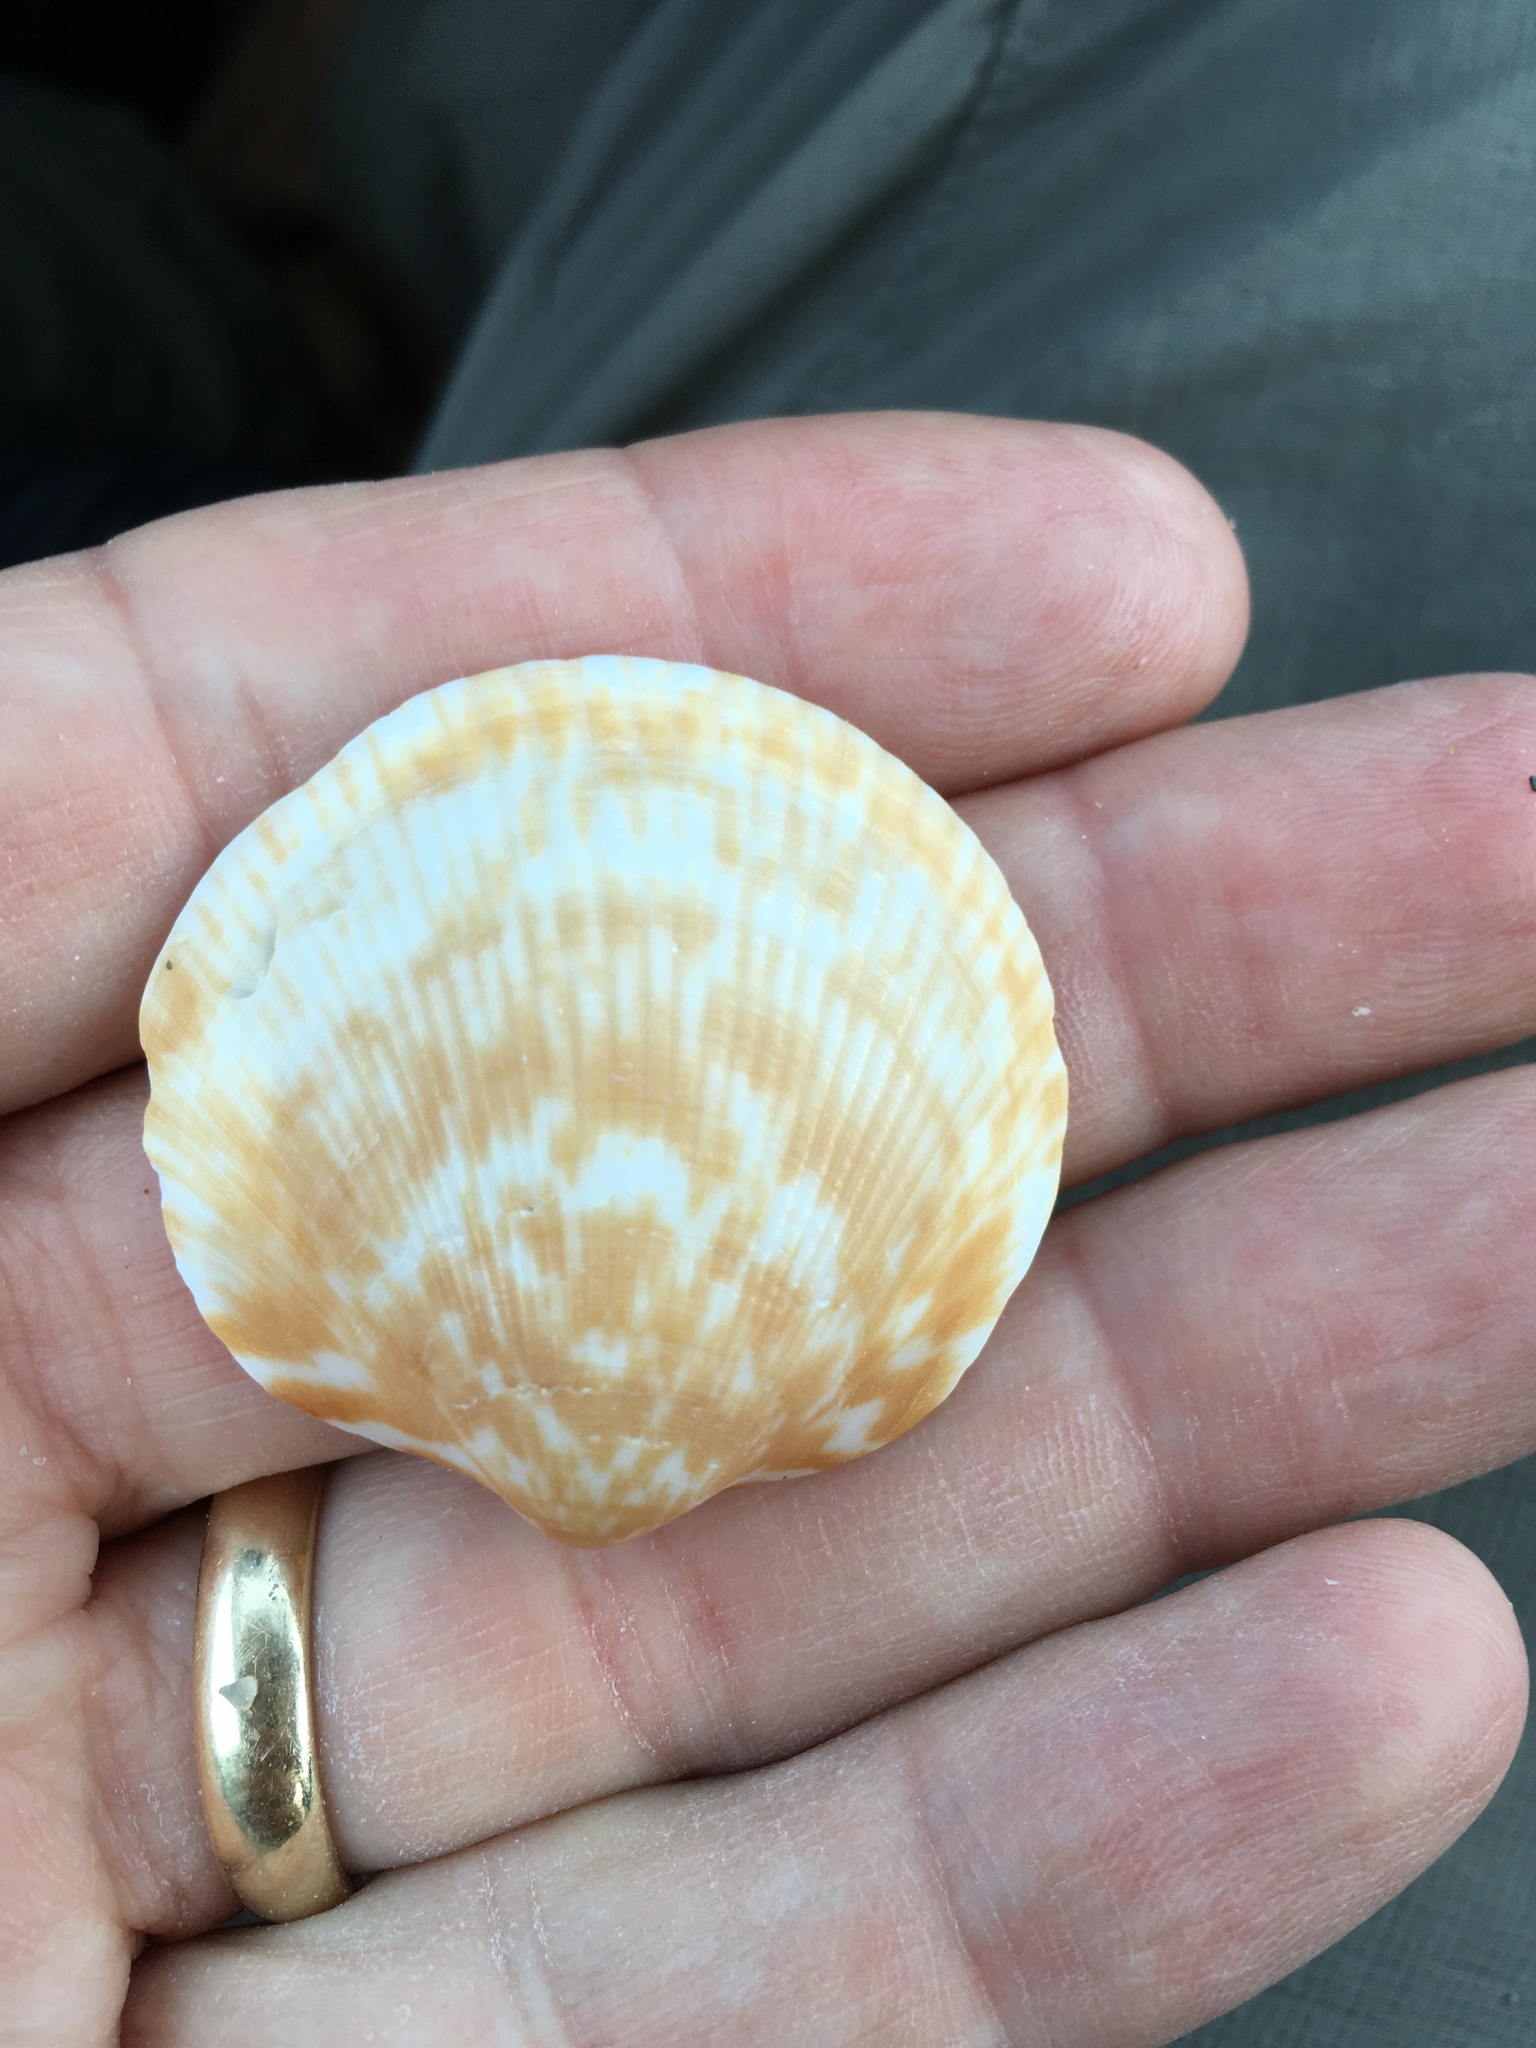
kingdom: Animalia
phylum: Mollusca
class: Bivalvia
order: Arcida
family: Glycymerididae
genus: Glycymeris
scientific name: Glycymeris americana
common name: American bittersweet
